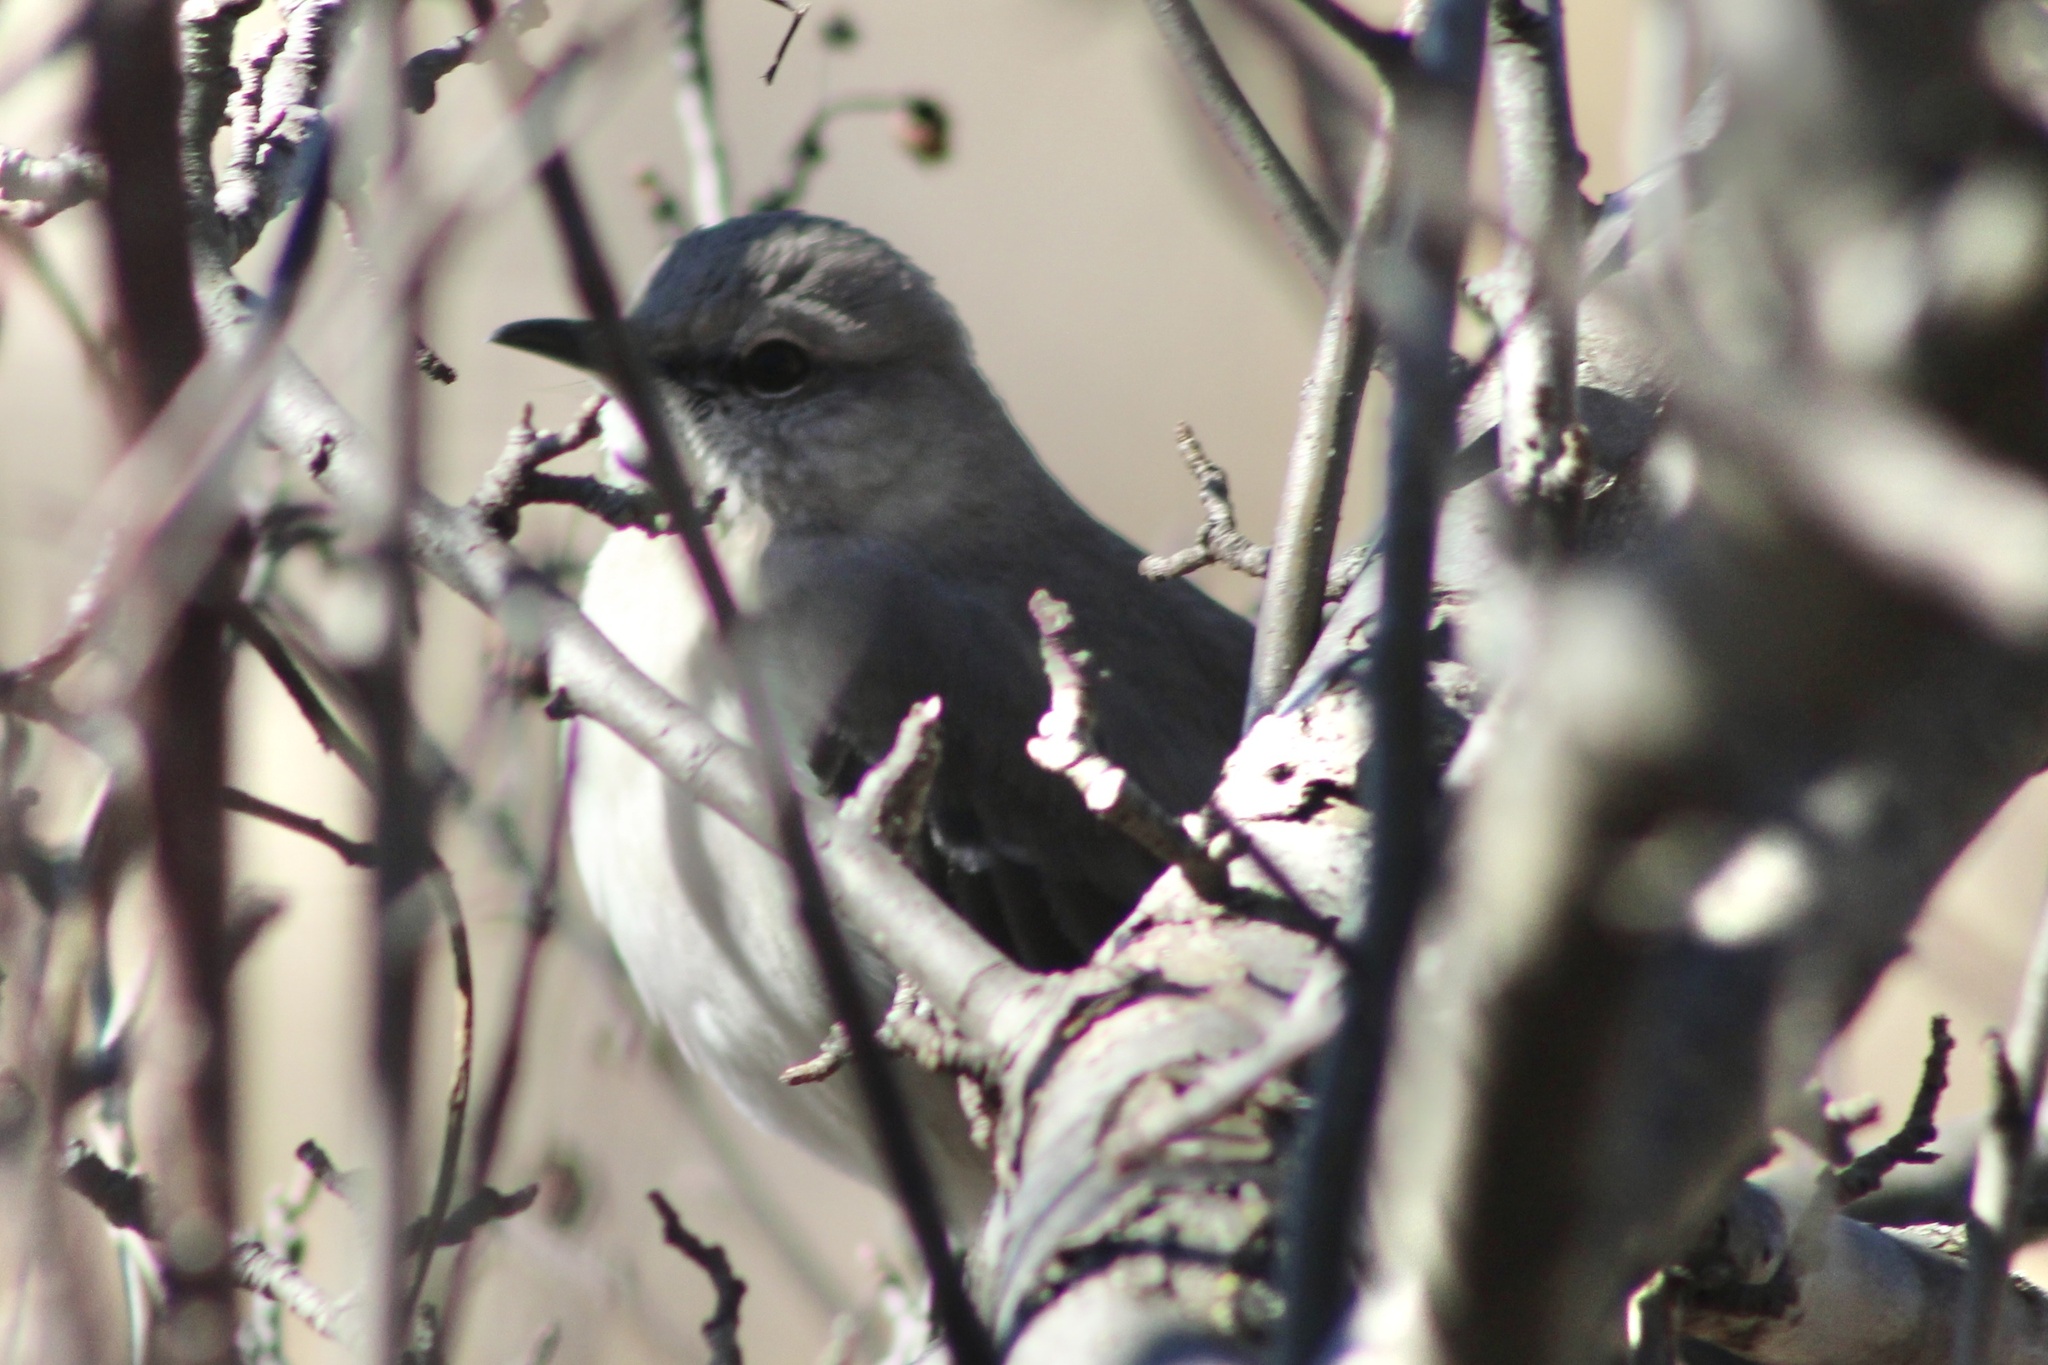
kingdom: Animalia
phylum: Chordata
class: Aves
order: Passeriformes
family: Mimidae
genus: Mimus
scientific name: Mimus polyglottos
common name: Northern mockingbird
